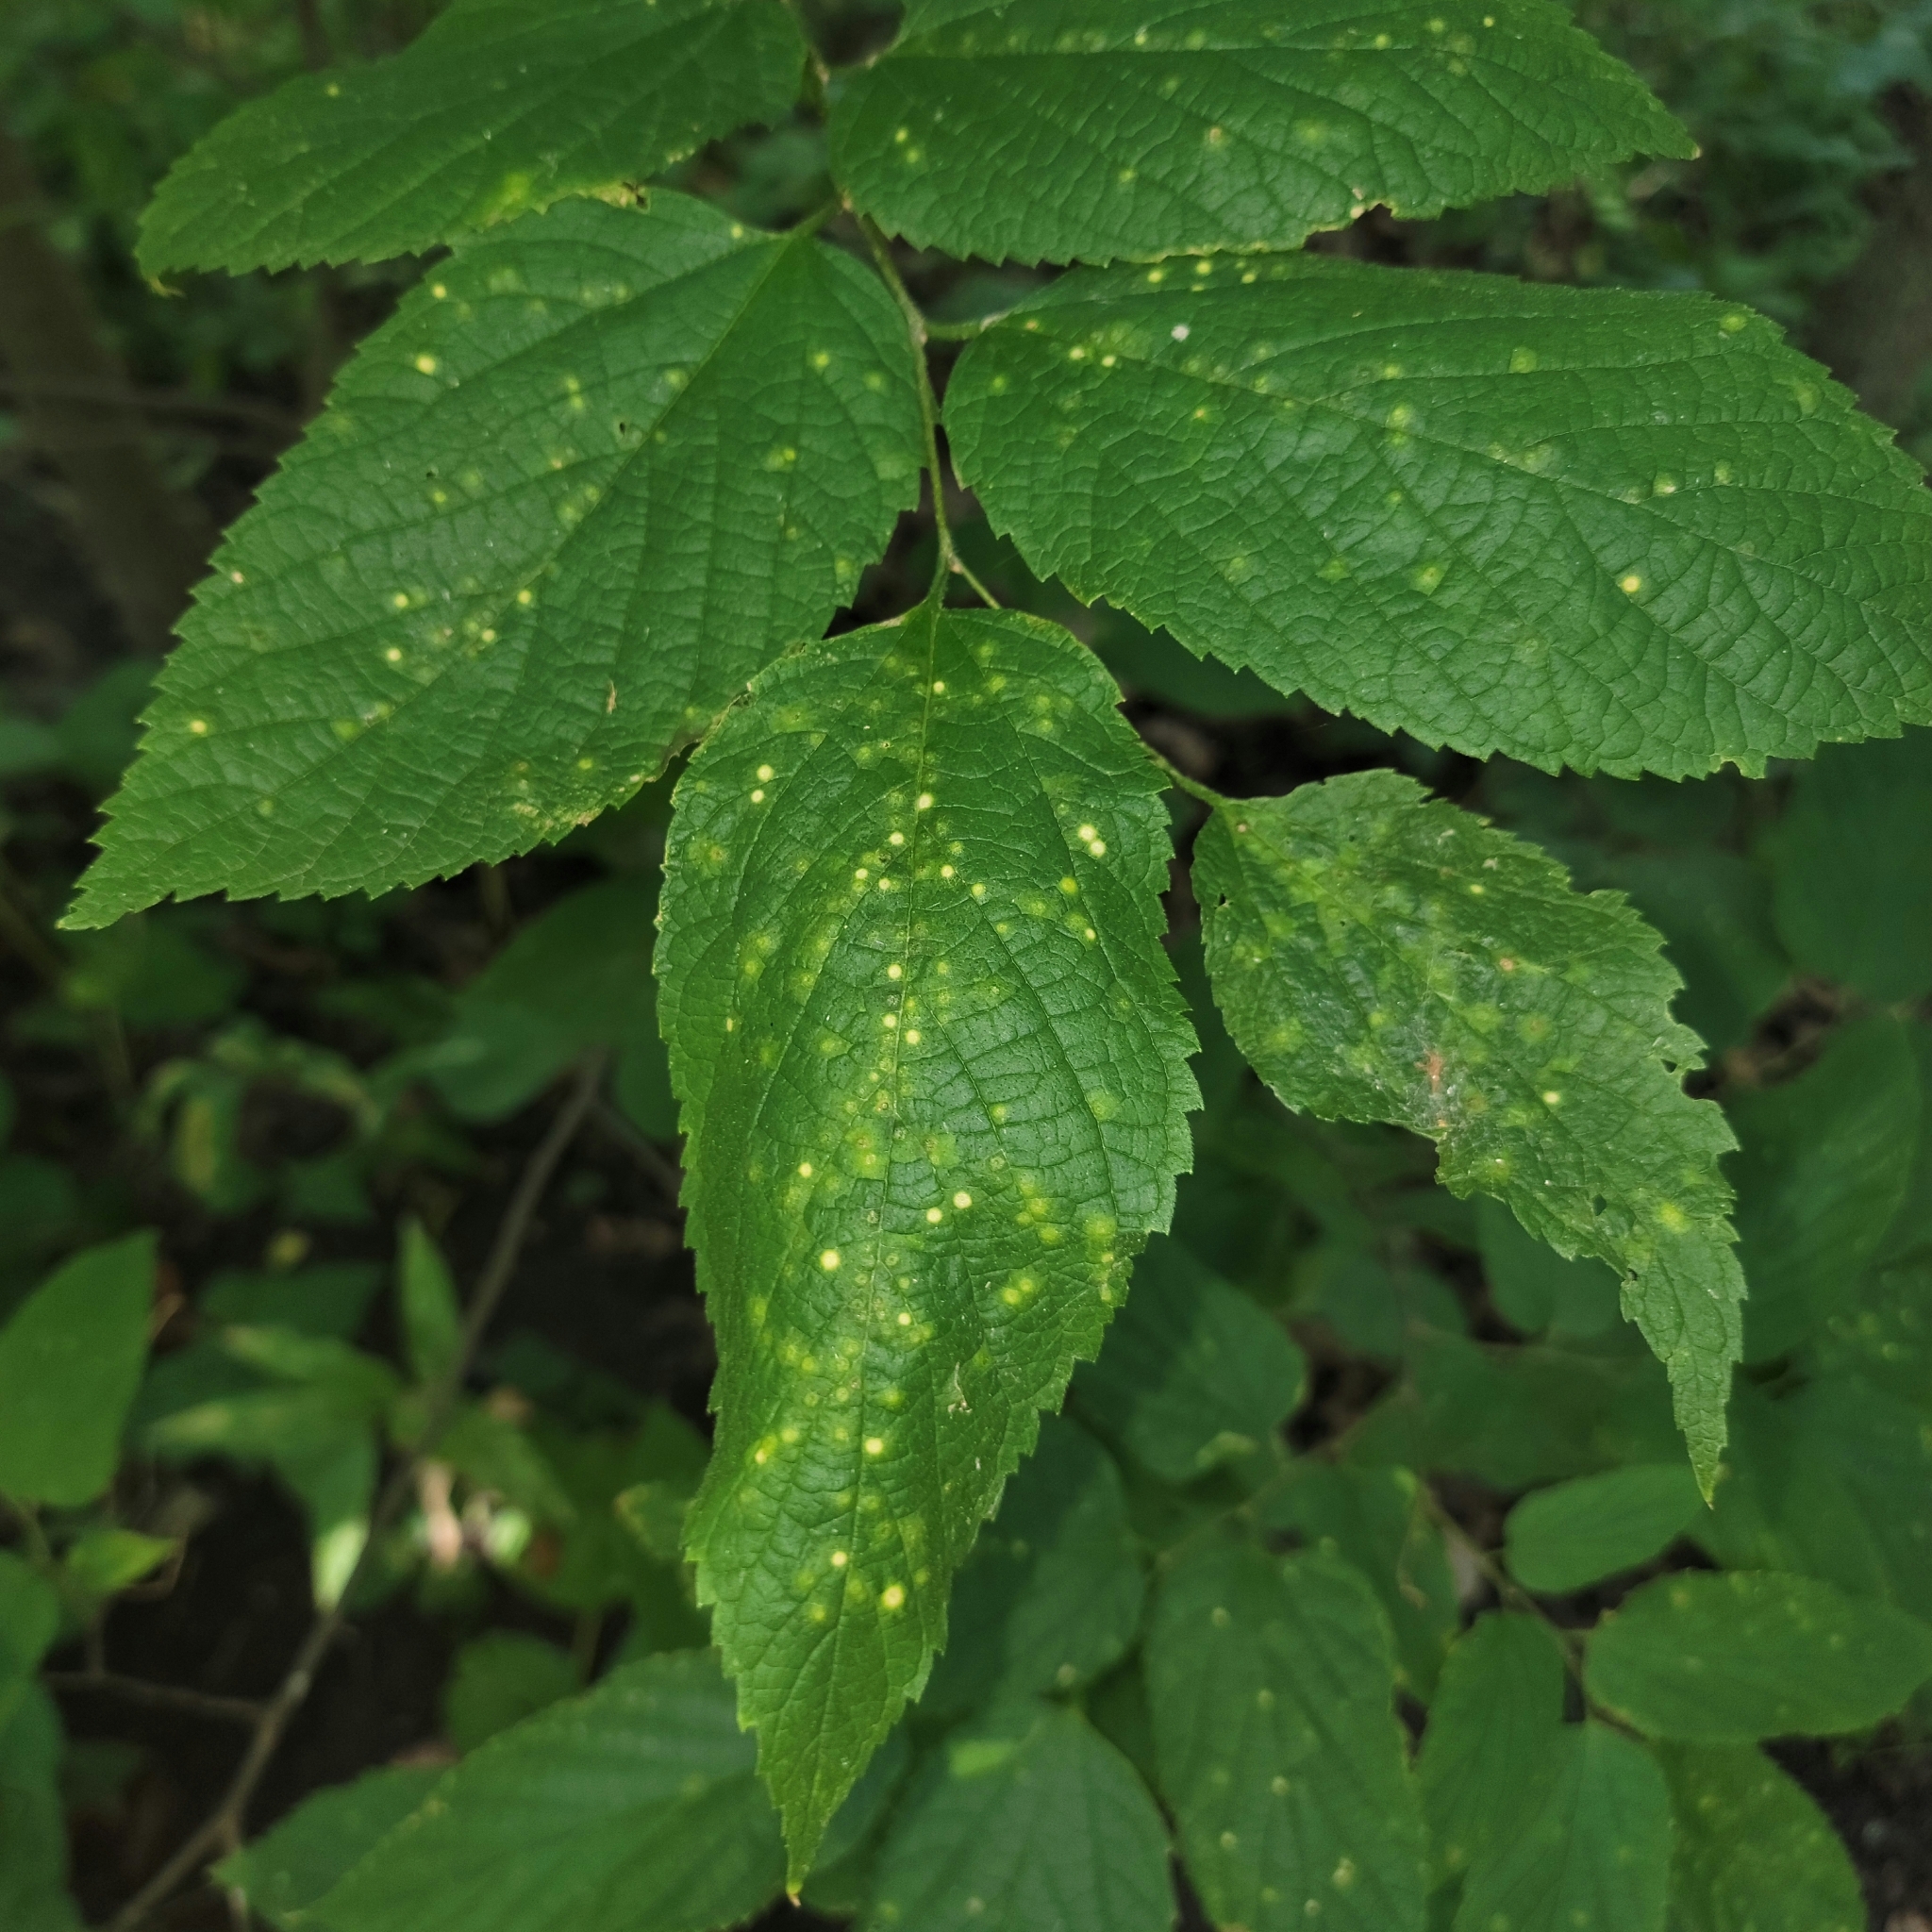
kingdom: Animalia
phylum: Arthropoda
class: Insecta
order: Hemiptera
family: Aphalaridae
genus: Pachypsylla
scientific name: Pachypsylla celtidisvesicula
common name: Hackberry blister gall psyllid
